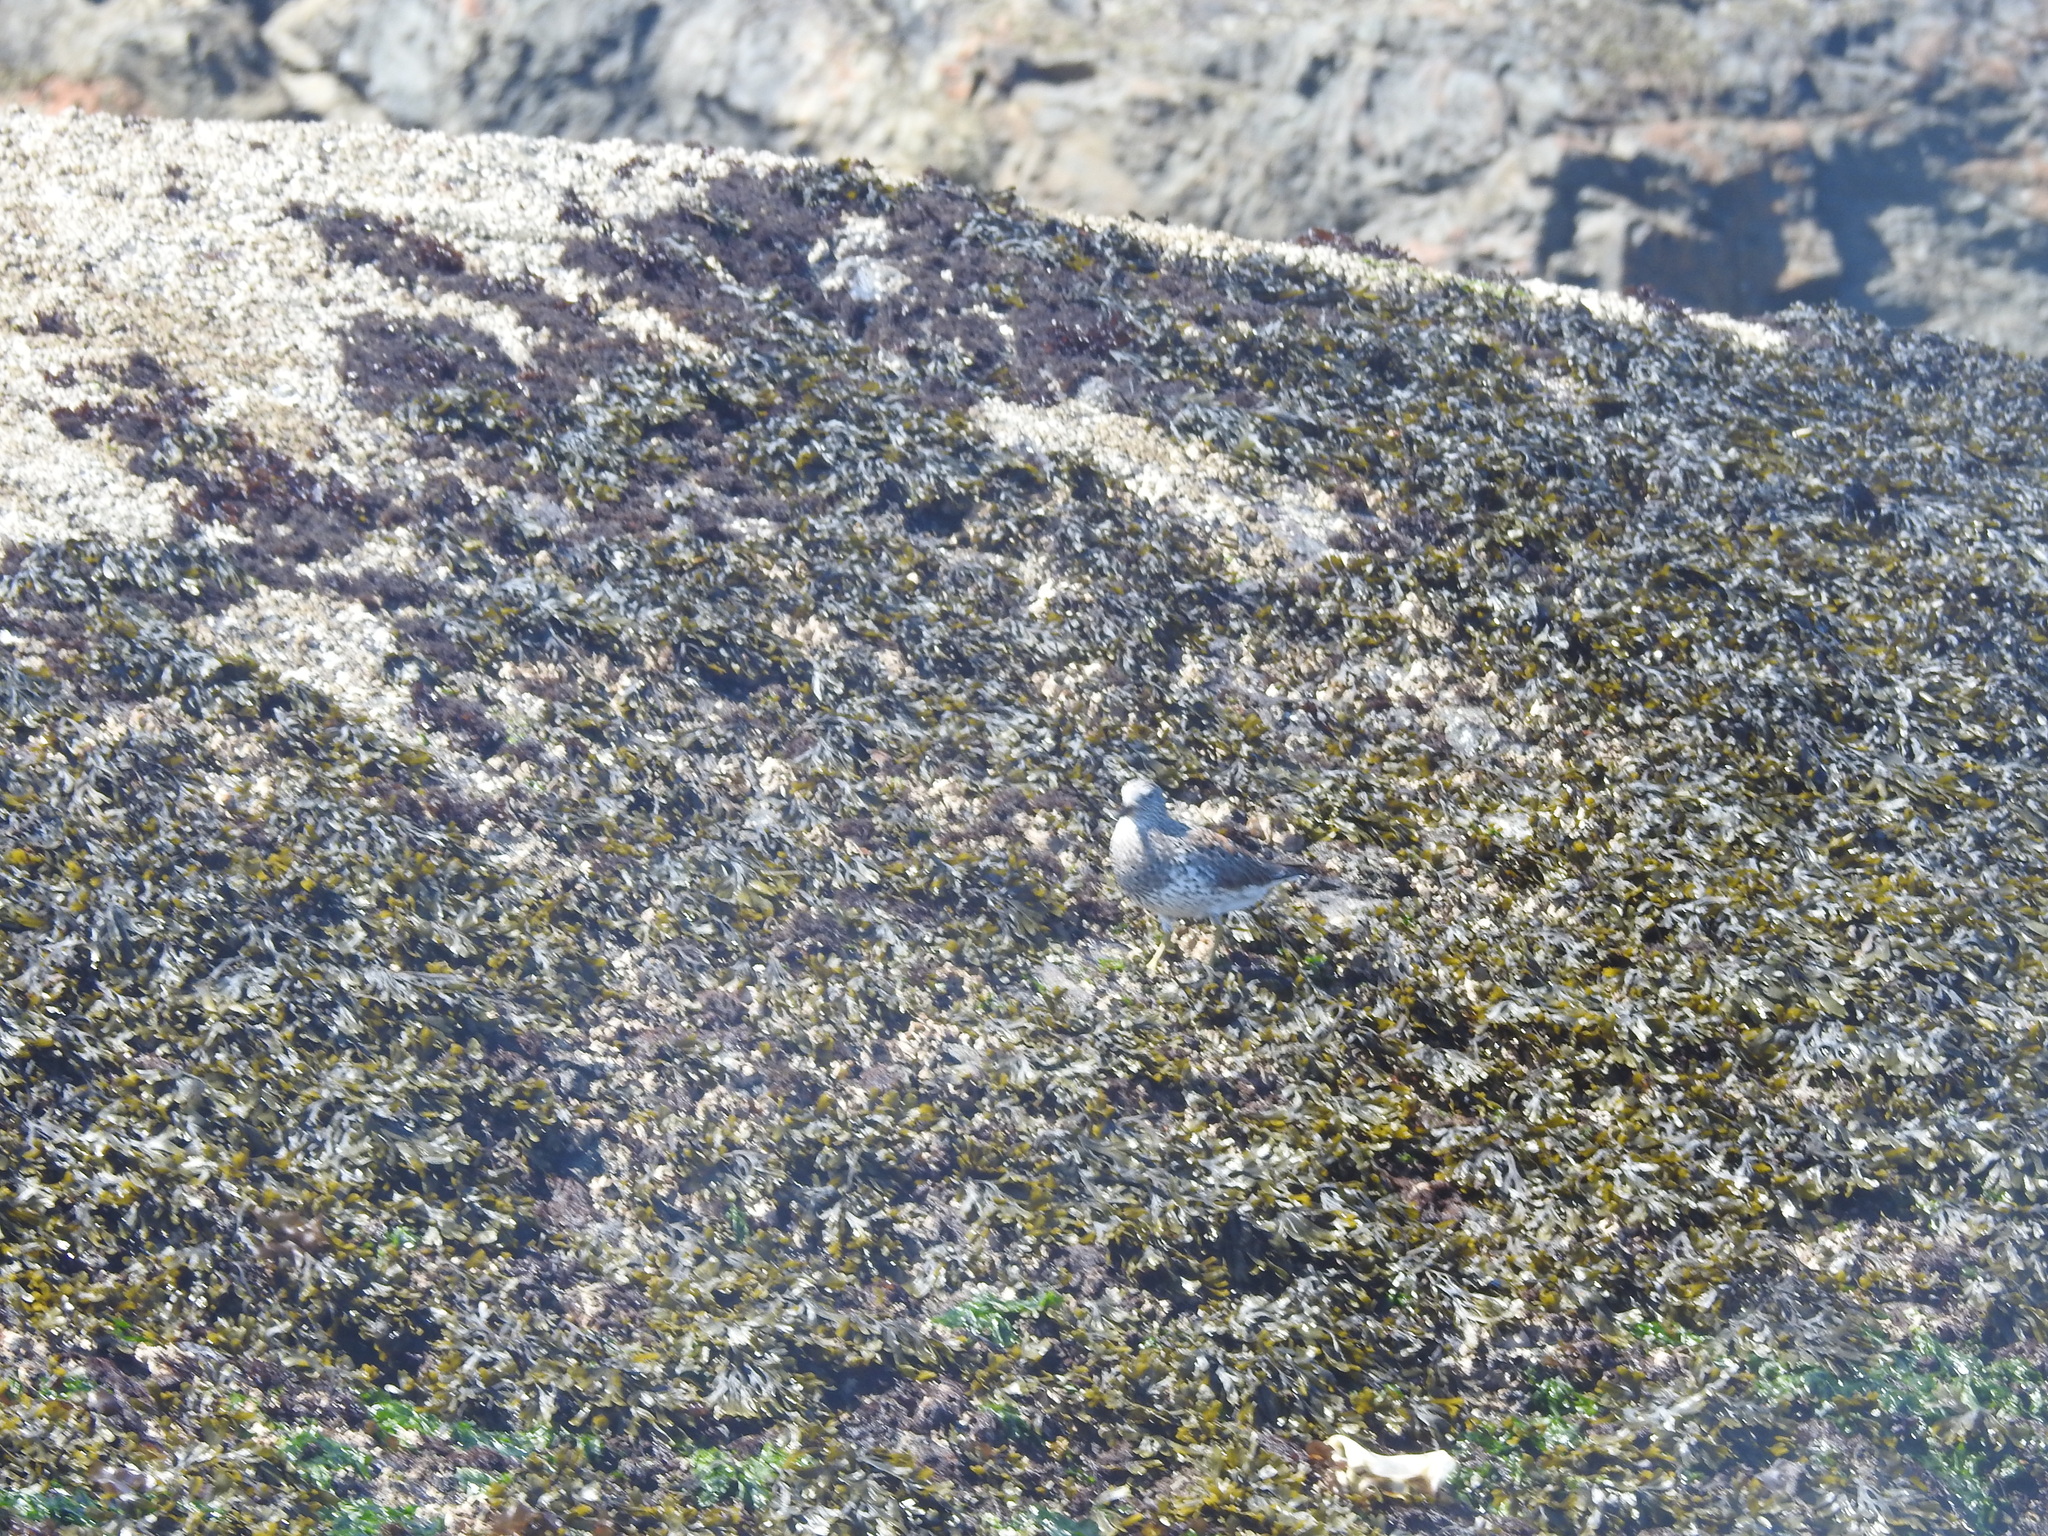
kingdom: Animalia
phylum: Chordata
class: Aves
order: Charadriiformes
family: Scolopacidae
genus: Calidris
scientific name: Calidris virgata
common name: Surfbird
